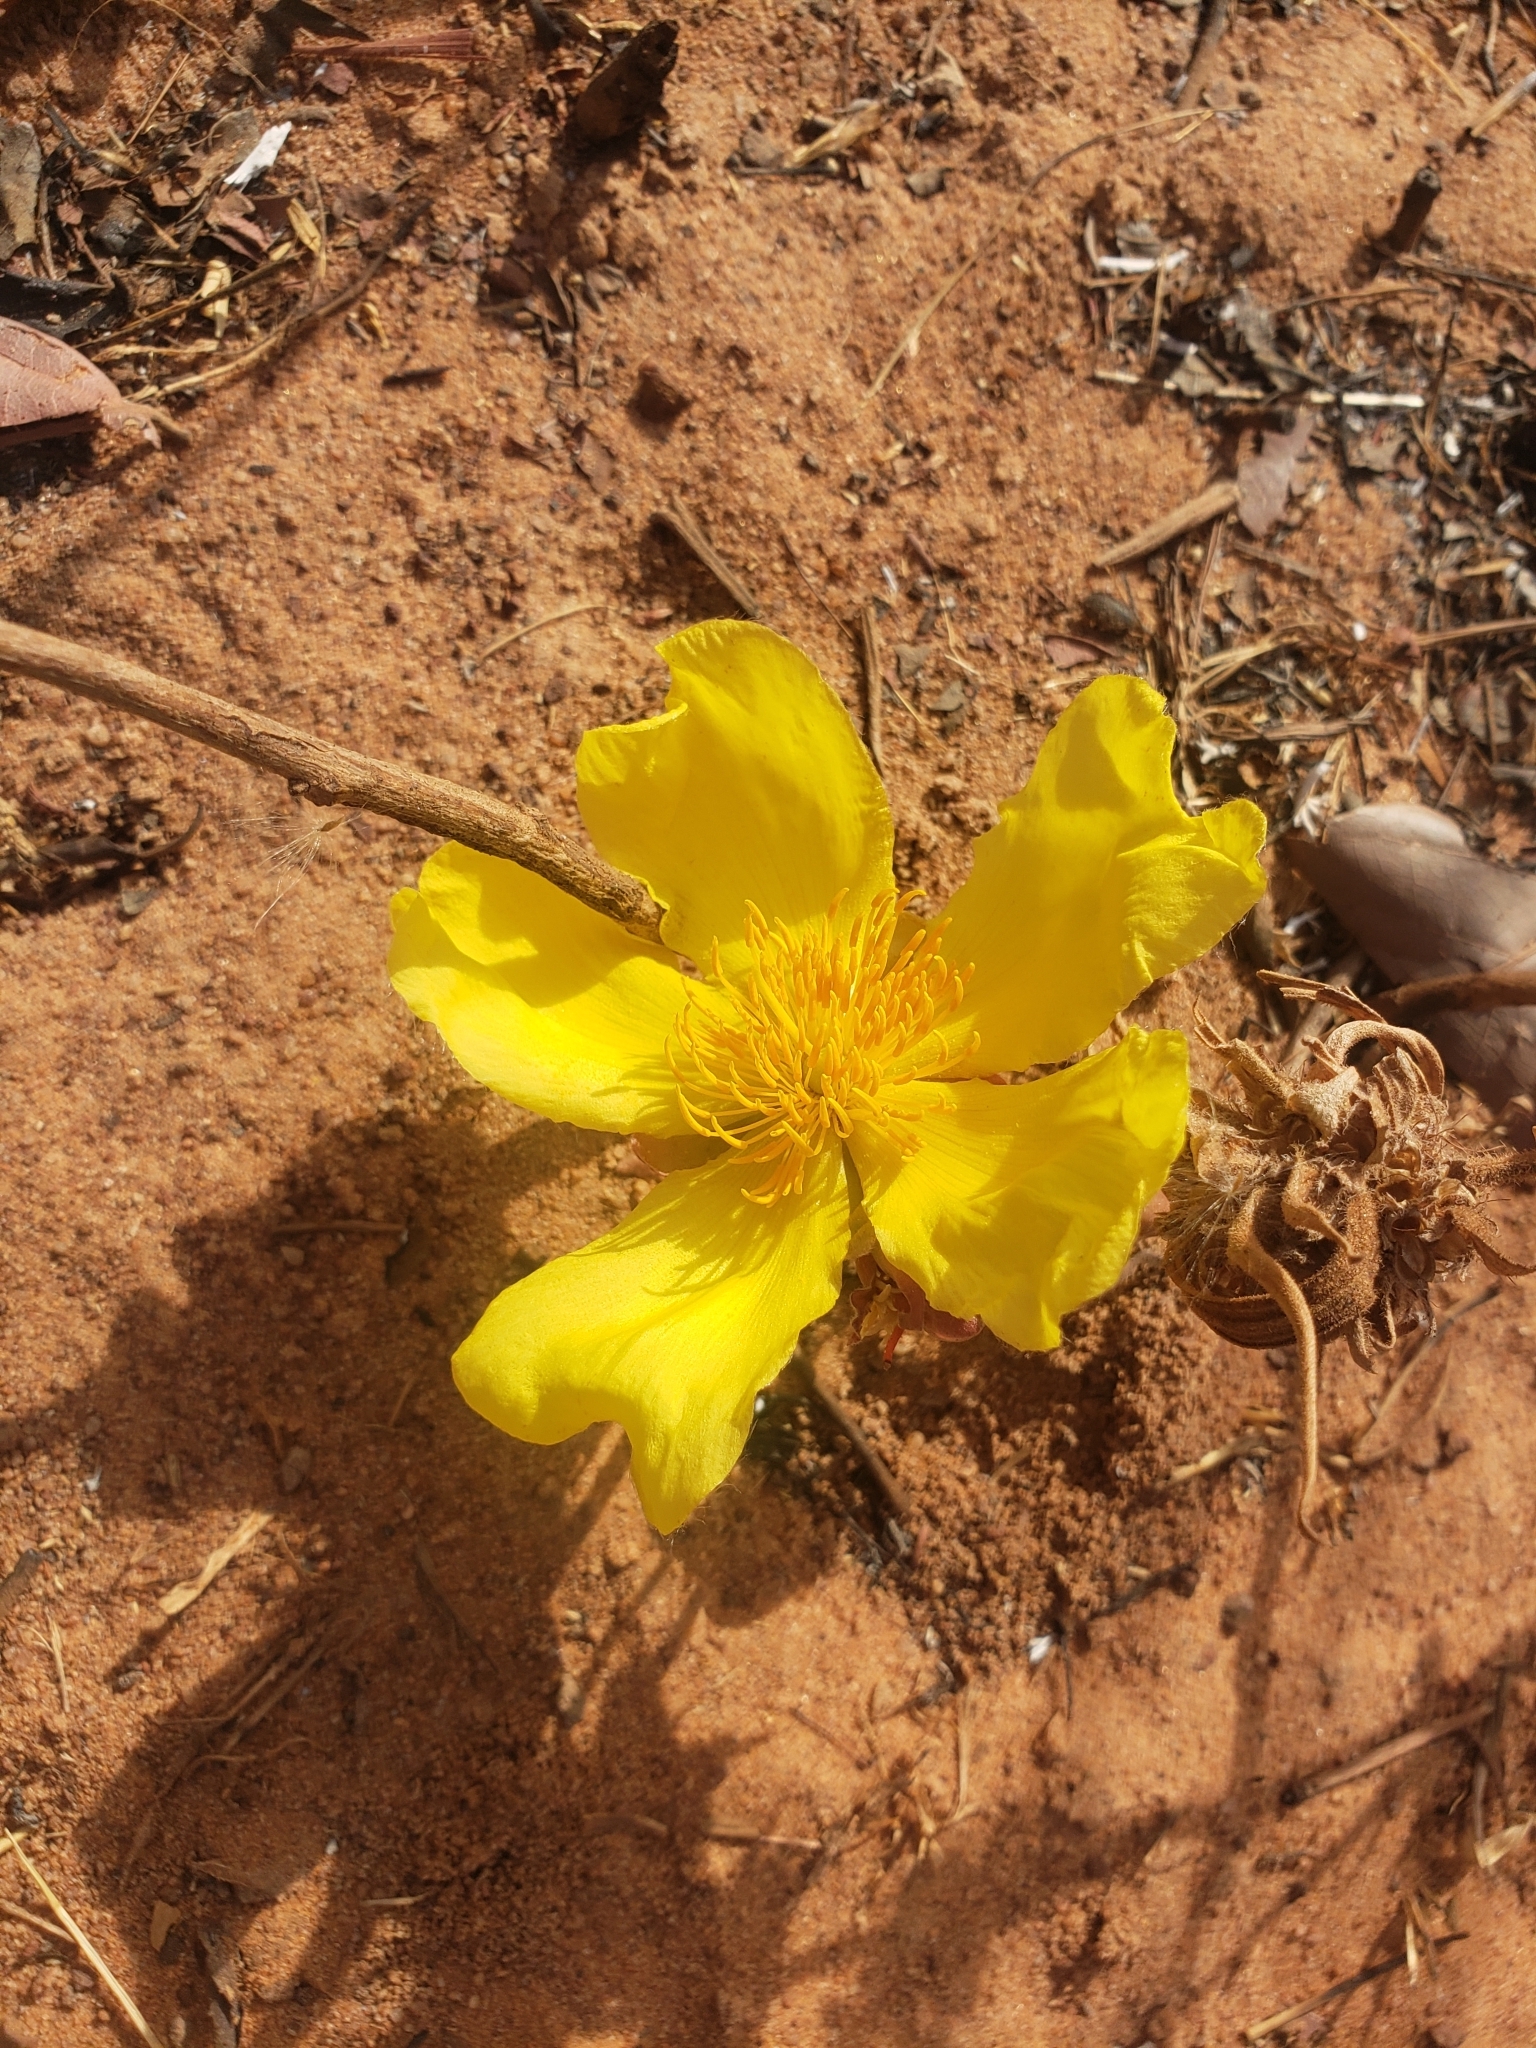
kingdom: Plantae
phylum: Tracheophyta
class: Magnoliopsida
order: Malvales
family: Cochlospermaceae
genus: Cochlospermum
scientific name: Cochlospermum tinctorium
